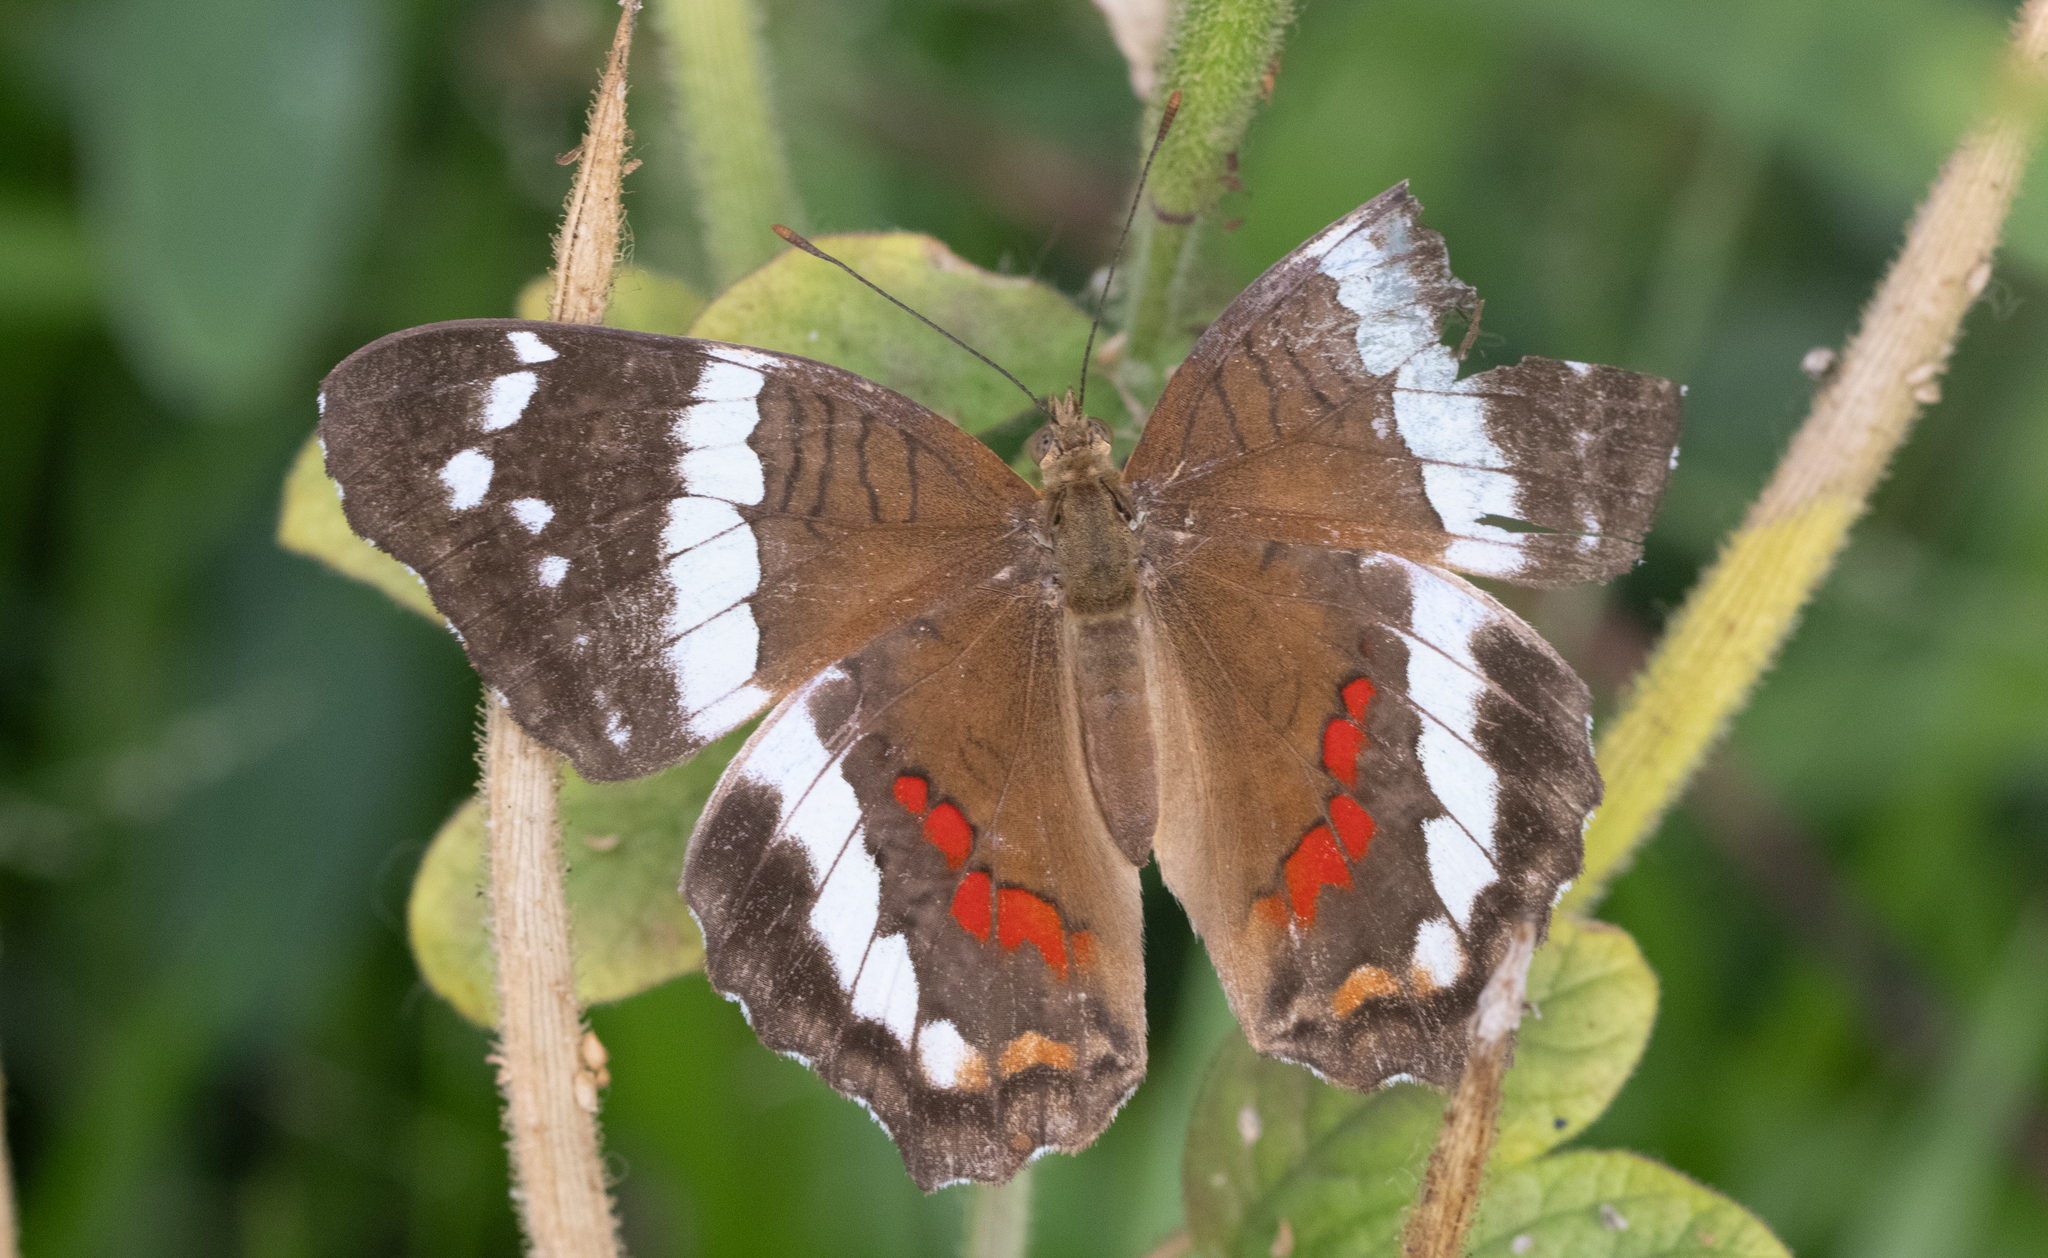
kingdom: Animalia
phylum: Arthropoda
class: Insecta
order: Lepidoptera
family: Nymphalidae
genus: Anartia
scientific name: Anartia fatima
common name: Banded peacock
